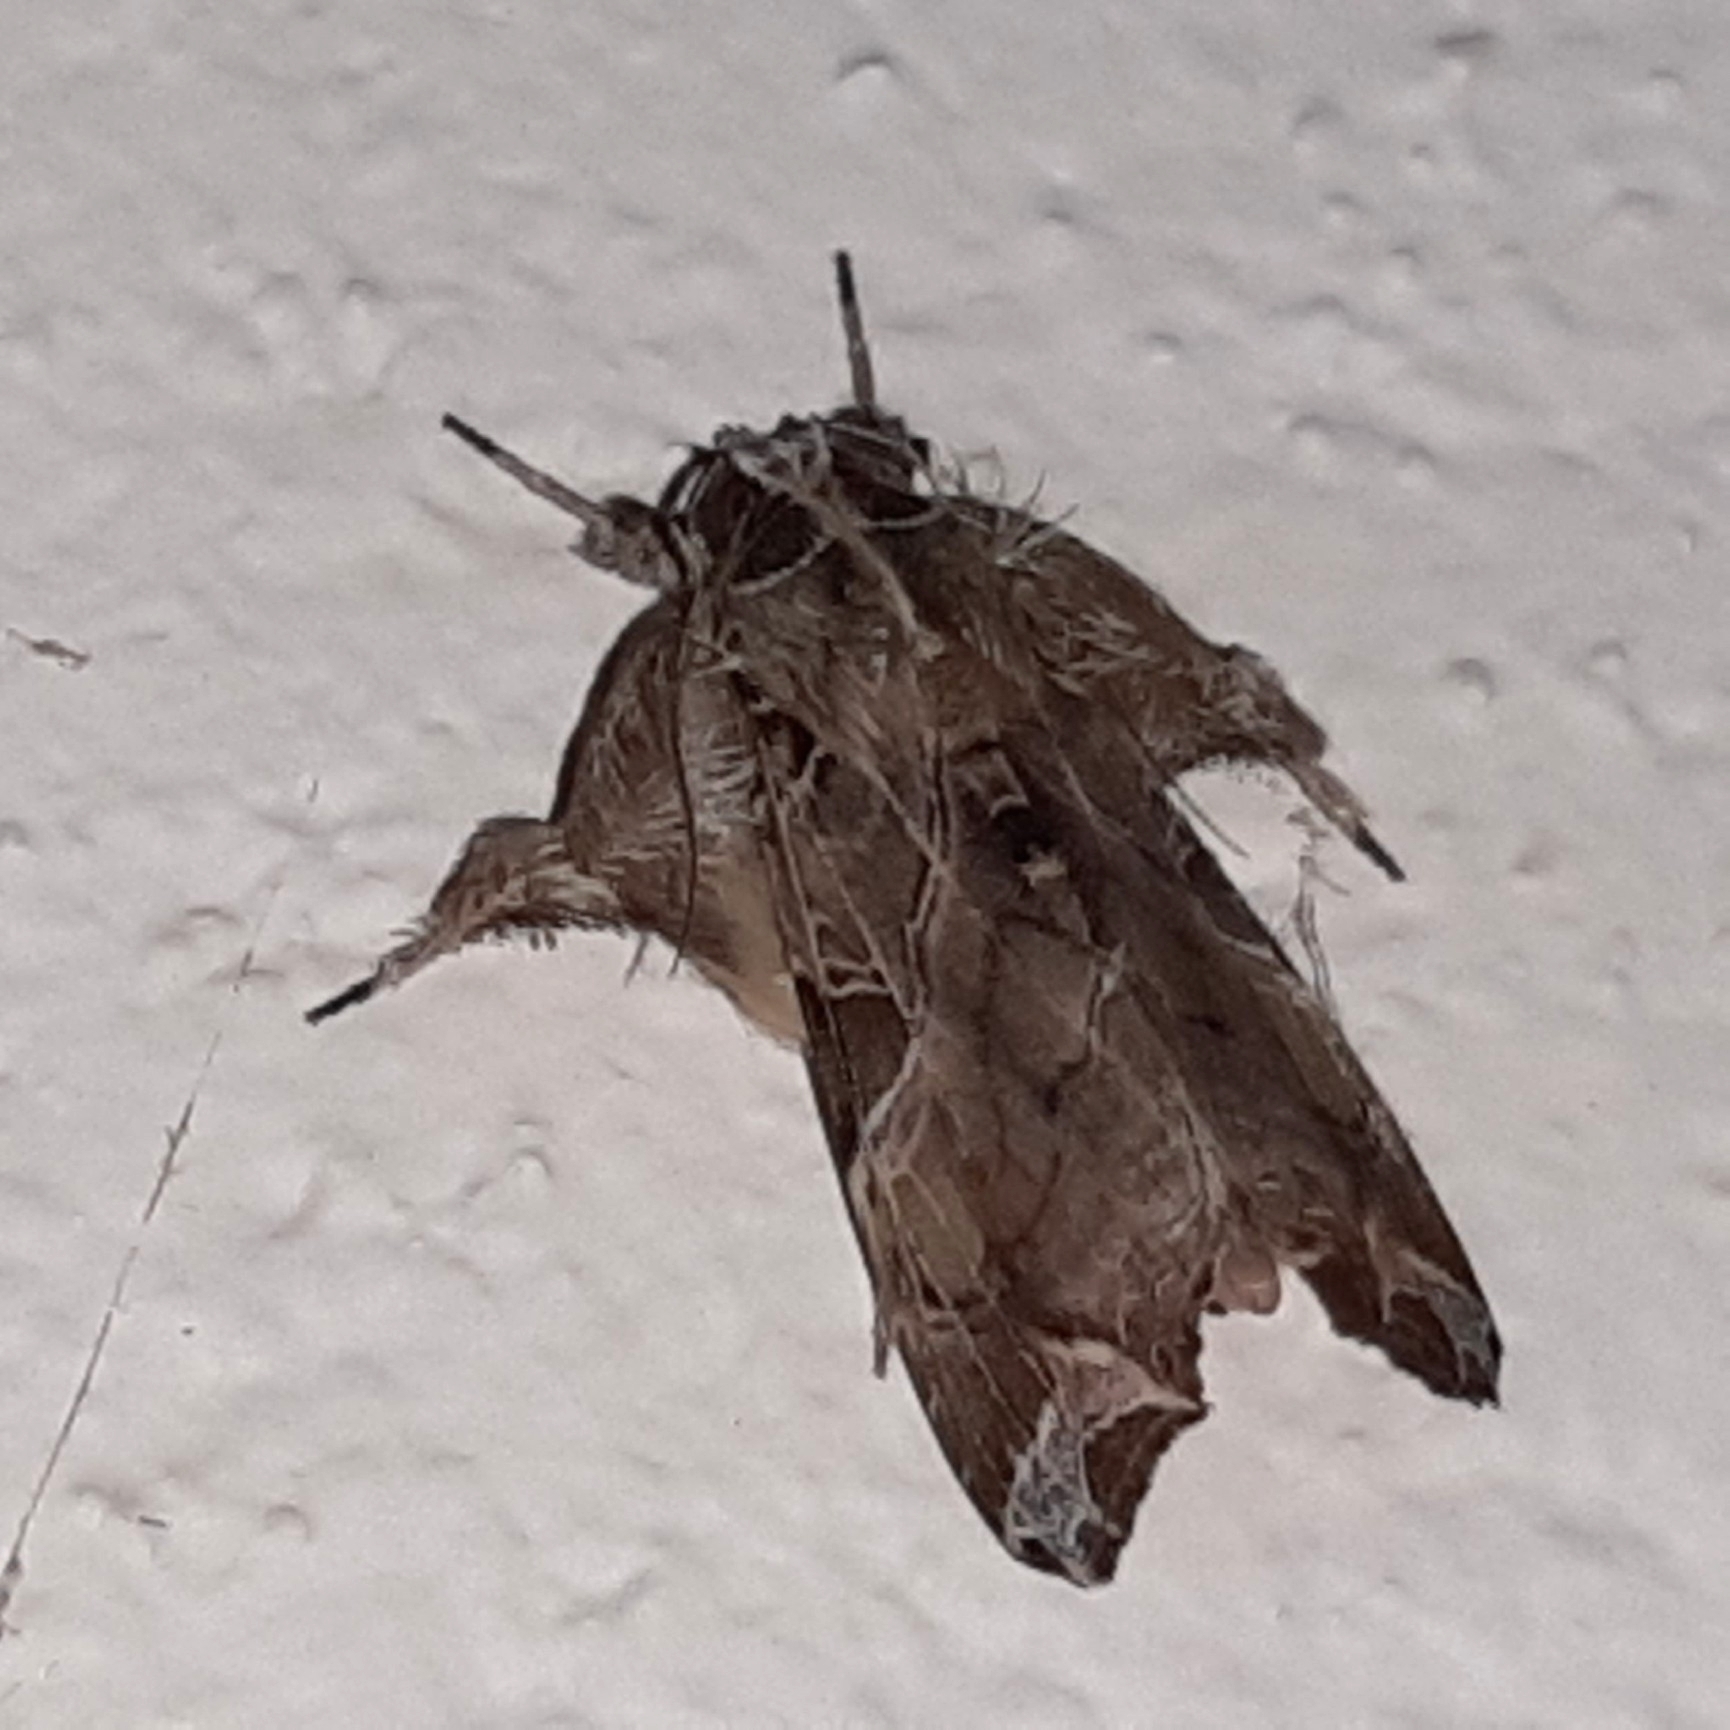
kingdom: Animalia
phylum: Arthropoda
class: Insecta
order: Lepidoptera
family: Noctuidae
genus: Callopistria
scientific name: Callopistria floridensis
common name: Florida fern moth
